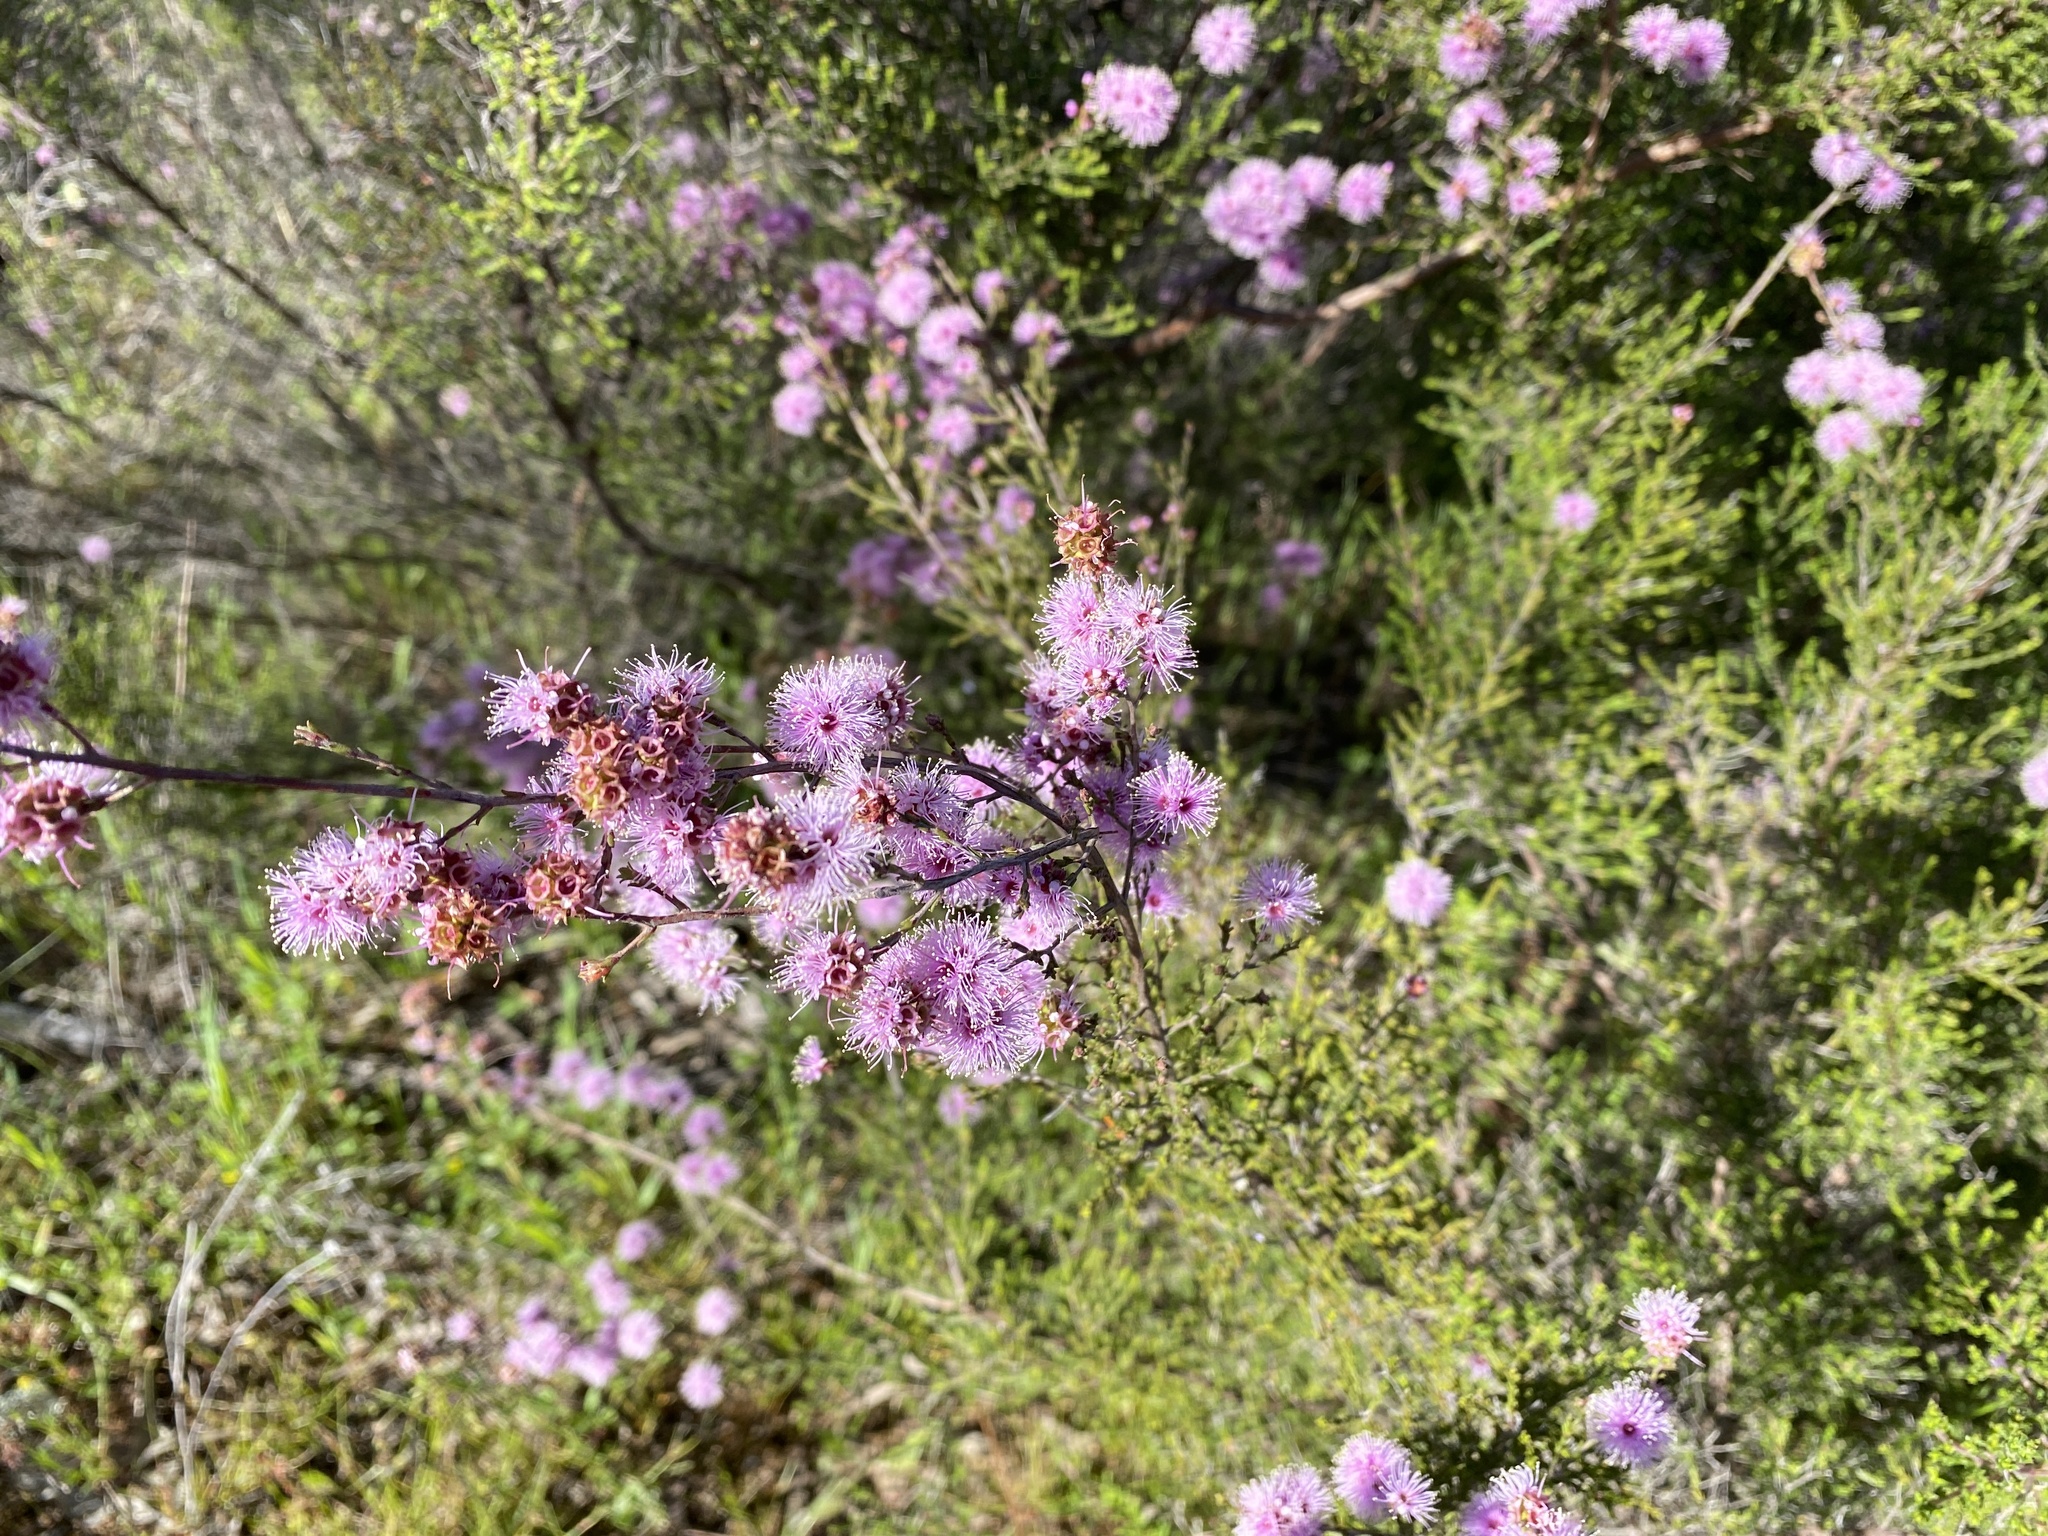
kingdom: Plantae
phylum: Tracheophyta
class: Magnoliopsida
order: Myrtales
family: Myrtaceae
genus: Kunzea
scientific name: Kunzea parvifolia
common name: Violet kunzea
